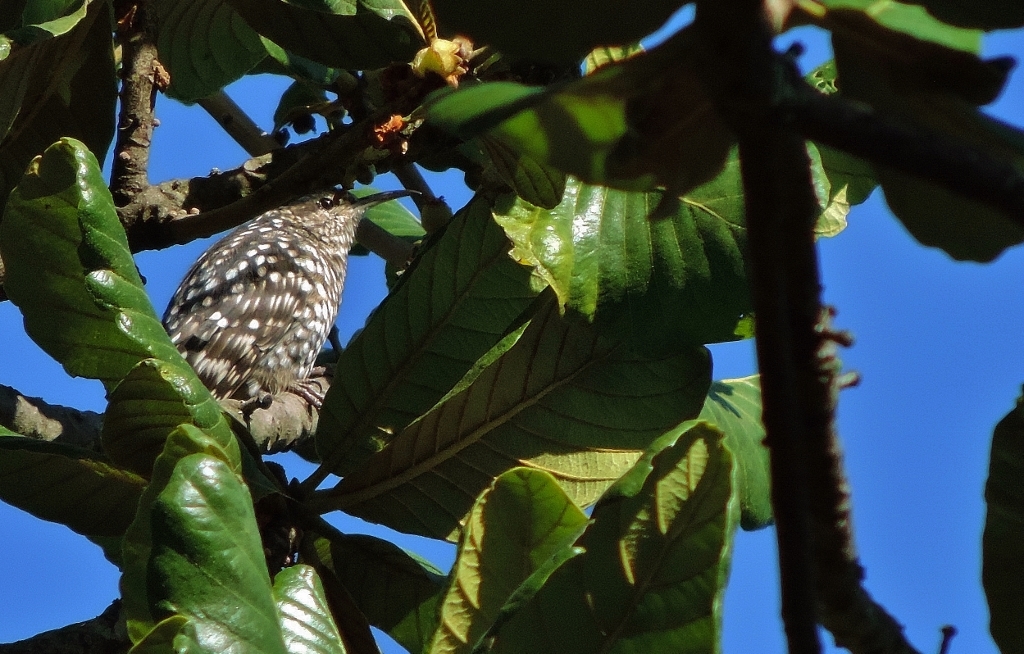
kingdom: Animalia
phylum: Chordata
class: Aves
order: Passeriformes
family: Certhiidae
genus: Salpornis
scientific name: Salpornis salvadori
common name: African spotted creeper
